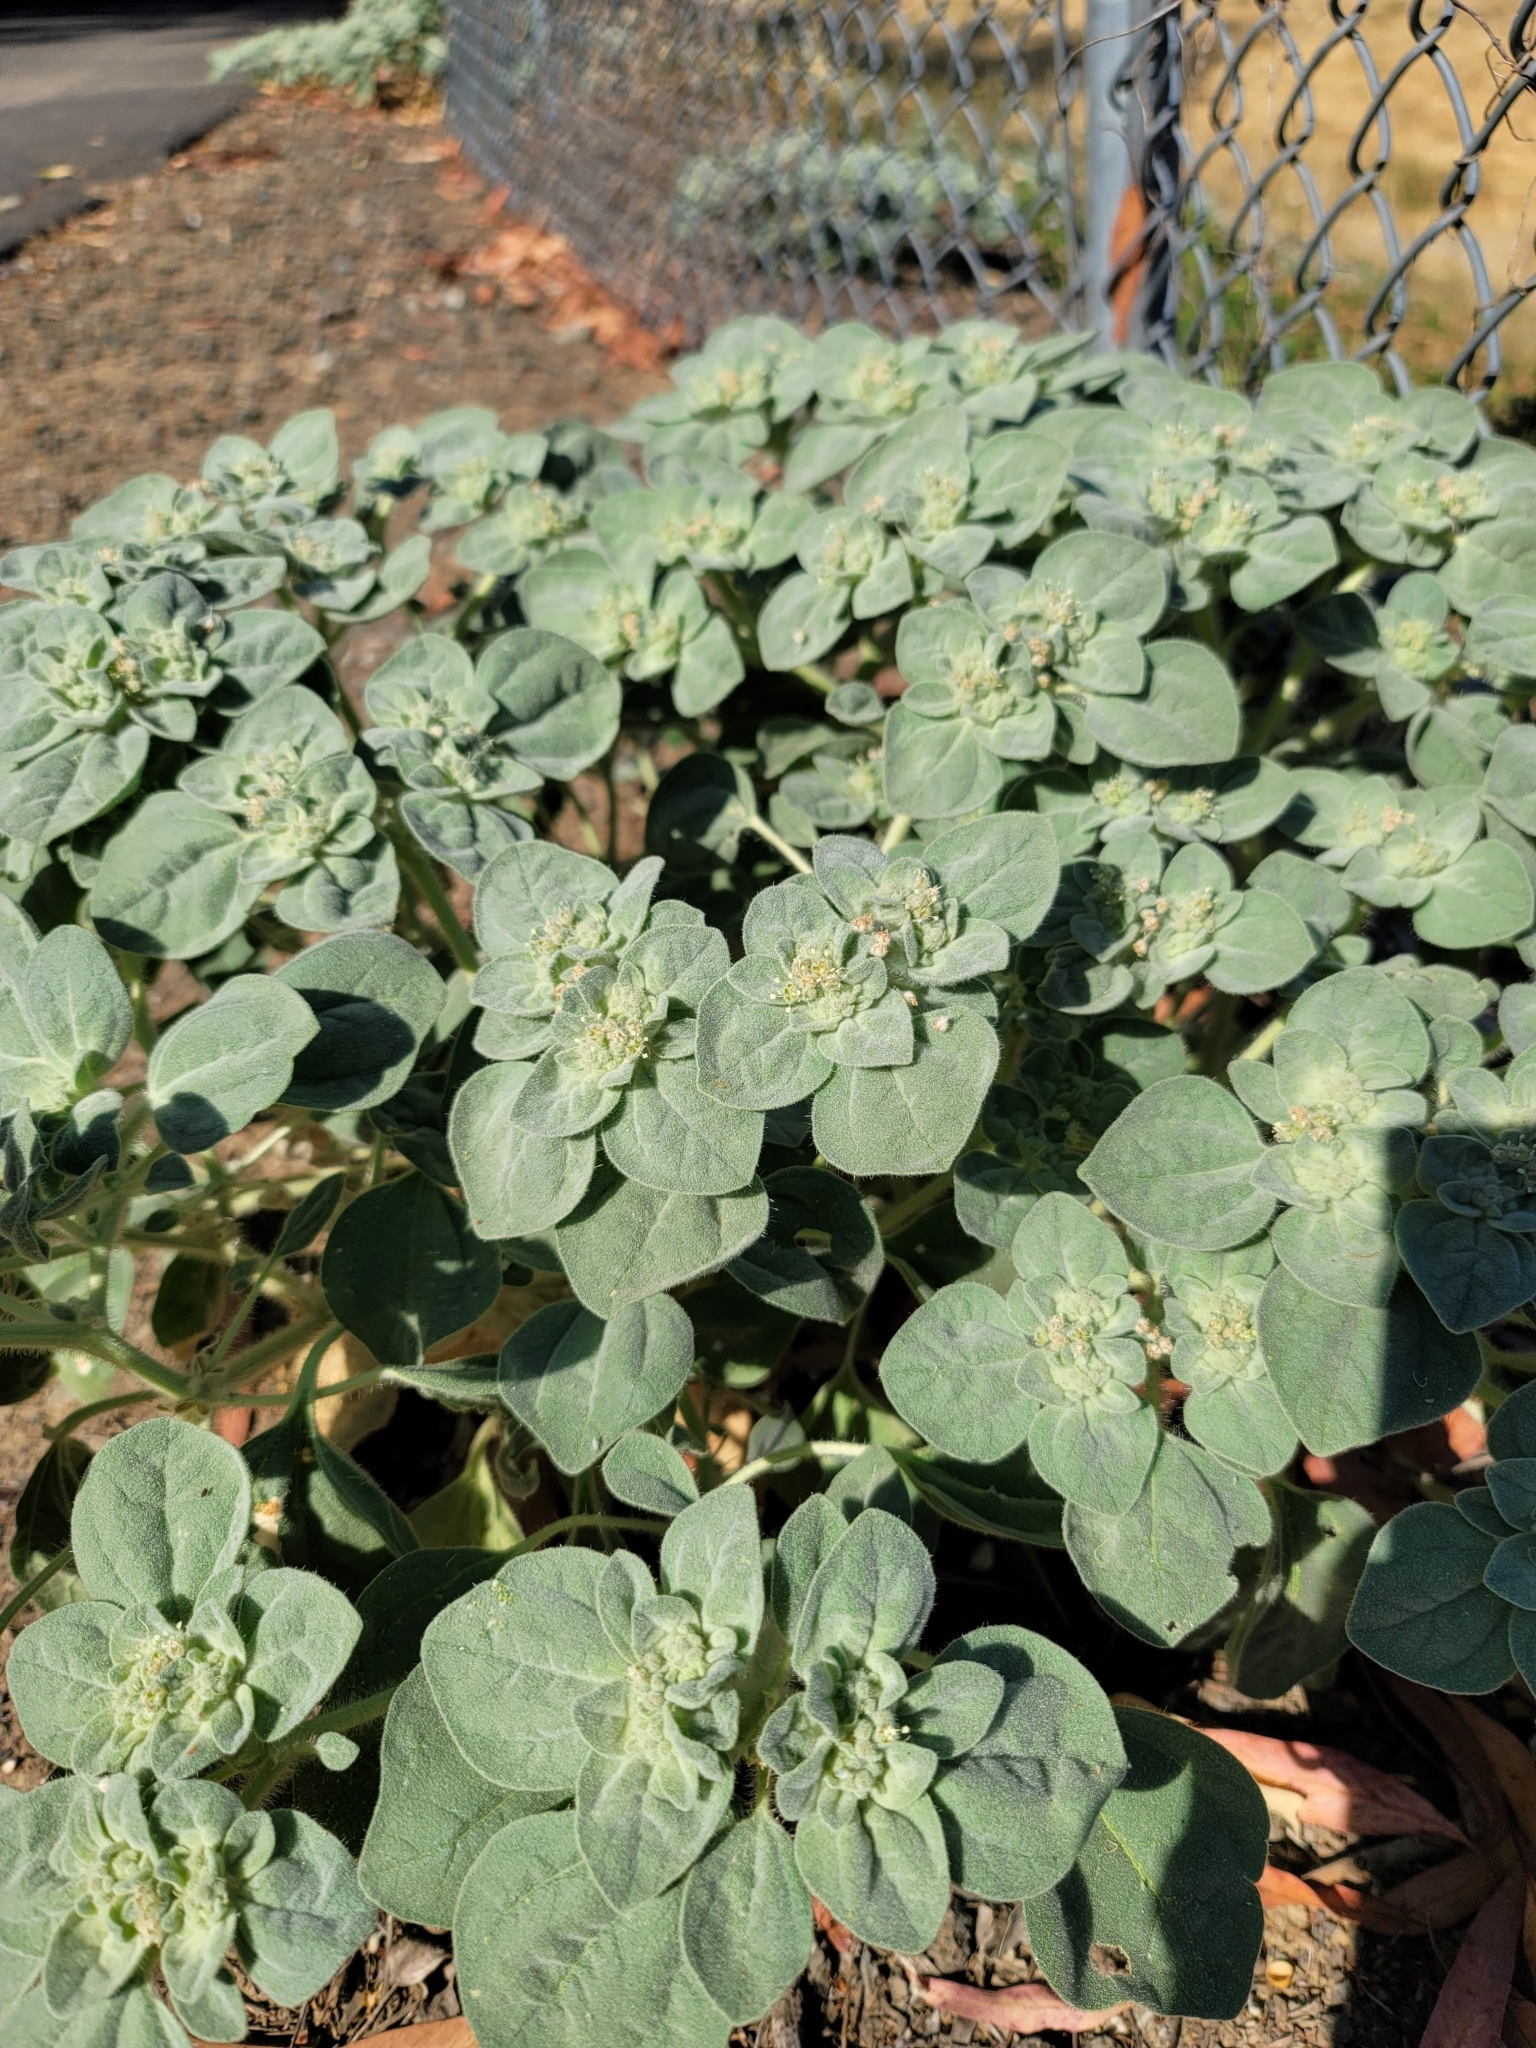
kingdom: Plantae
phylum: Tracheophyta
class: Magnoliopsida
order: Malpighiales
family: Euphorbiaceae
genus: Croton
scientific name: Croton setiger
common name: Dove weed
